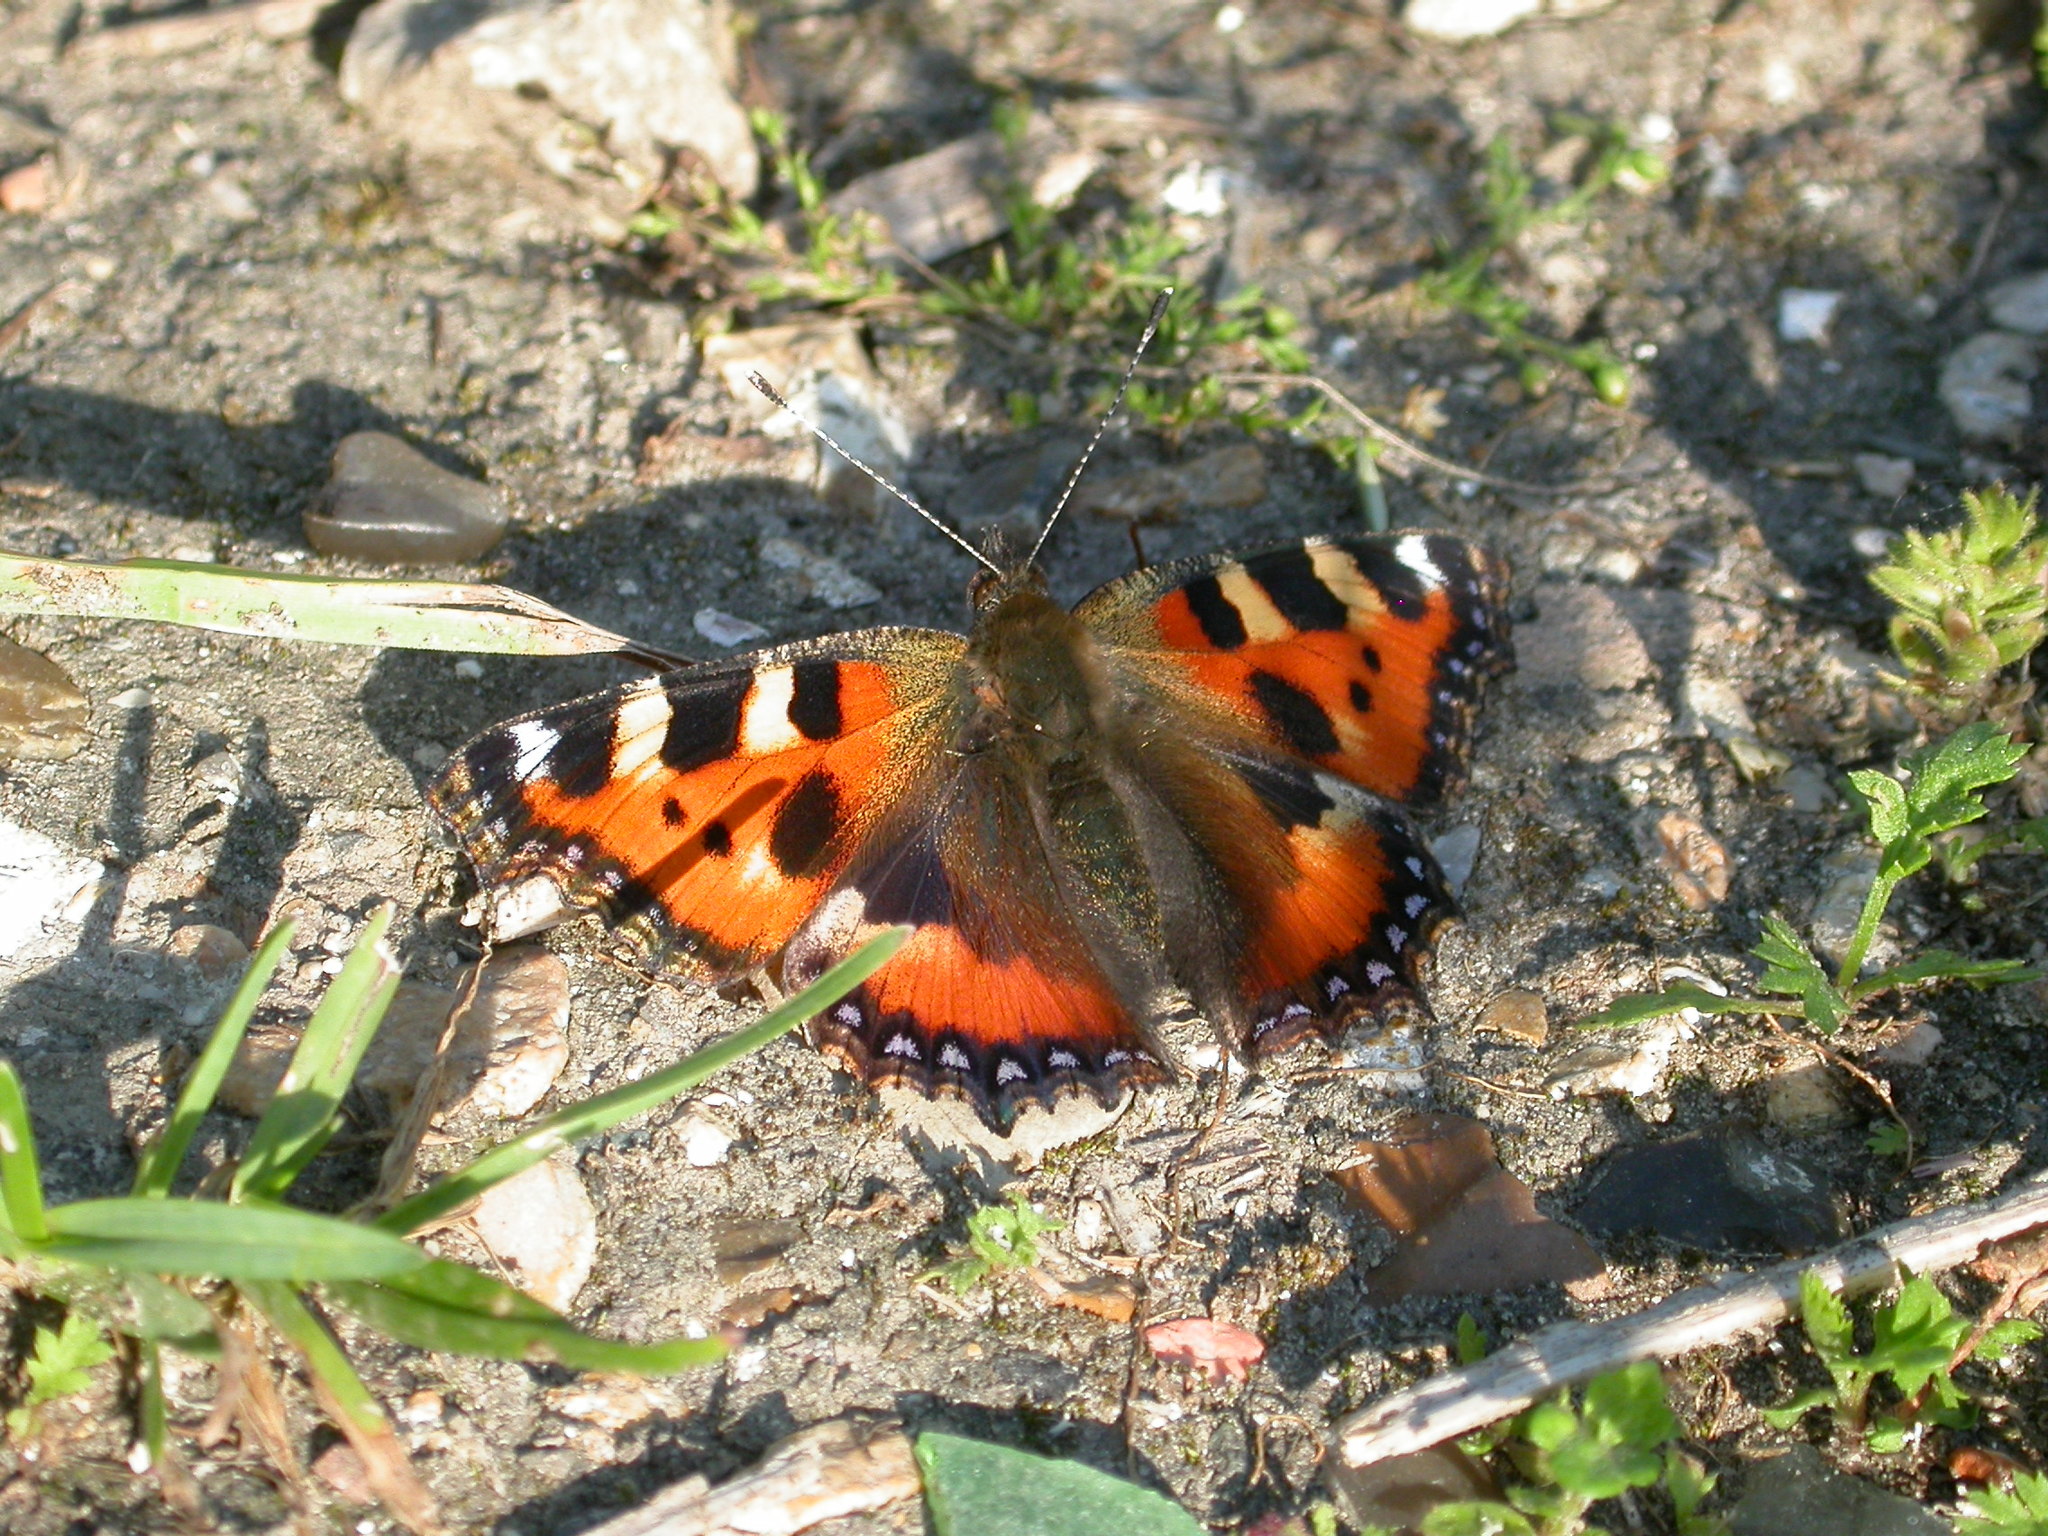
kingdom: Animalia
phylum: Arthropoda
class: Insecta
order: Lepidoptera
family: Nymphalidae
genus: Aglais
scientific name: Aglais urticae
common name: Small tortoiseshell
